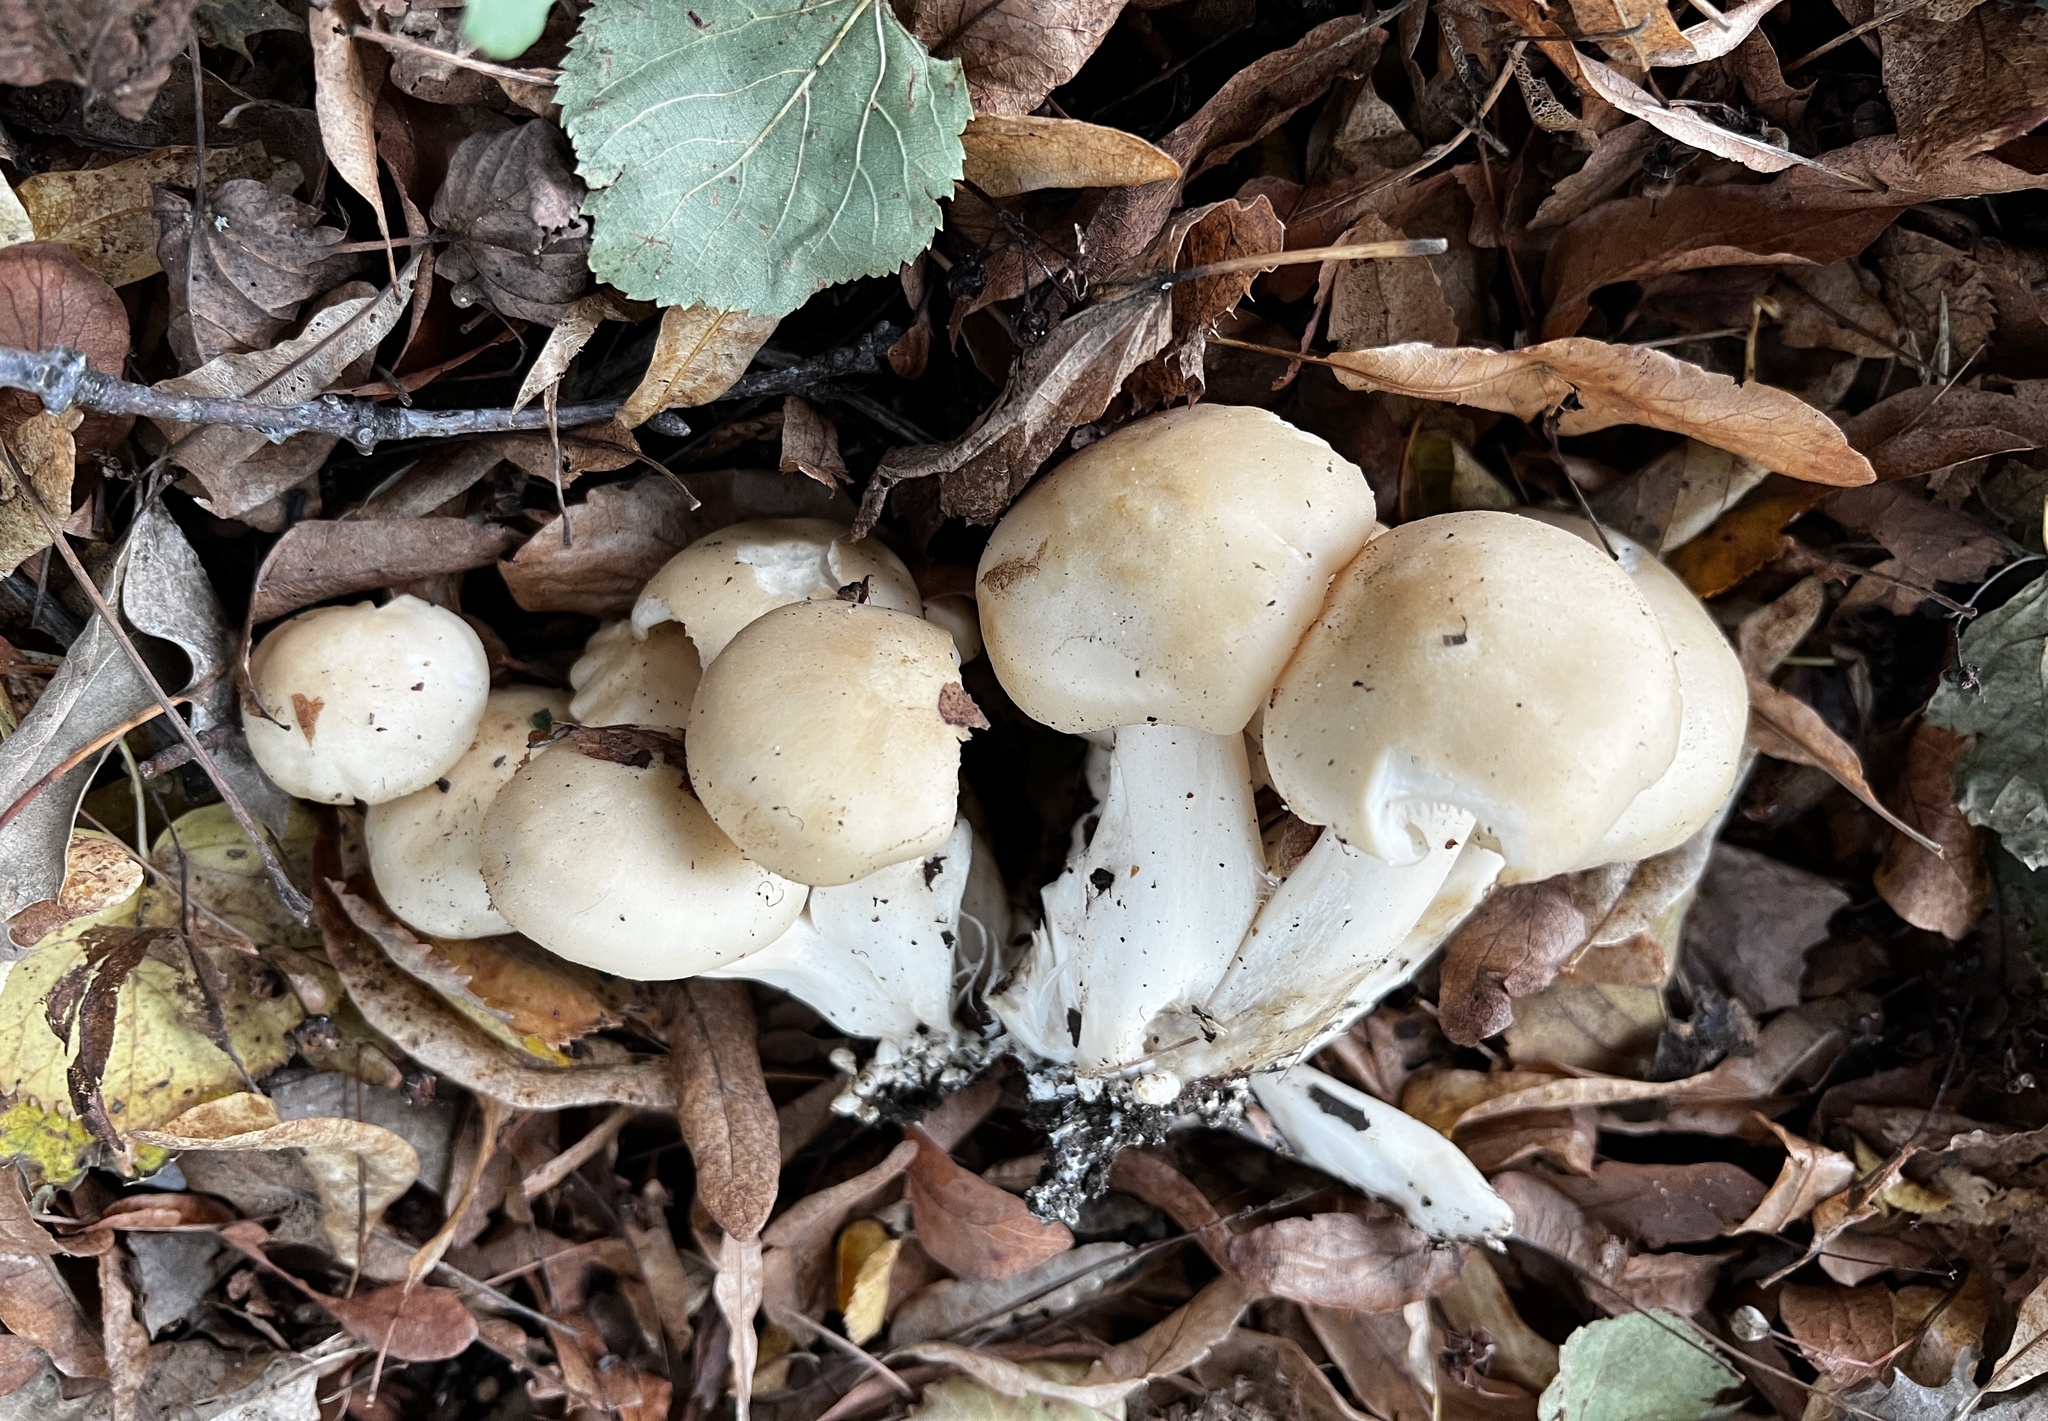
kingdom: Fungi
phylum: Basidiomycota
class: Agaricomycetes
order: Agaricales
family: Lyophyllaceae
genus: Lyophyllum
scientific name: Lyophyllum decastes
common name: Clustered domecap
